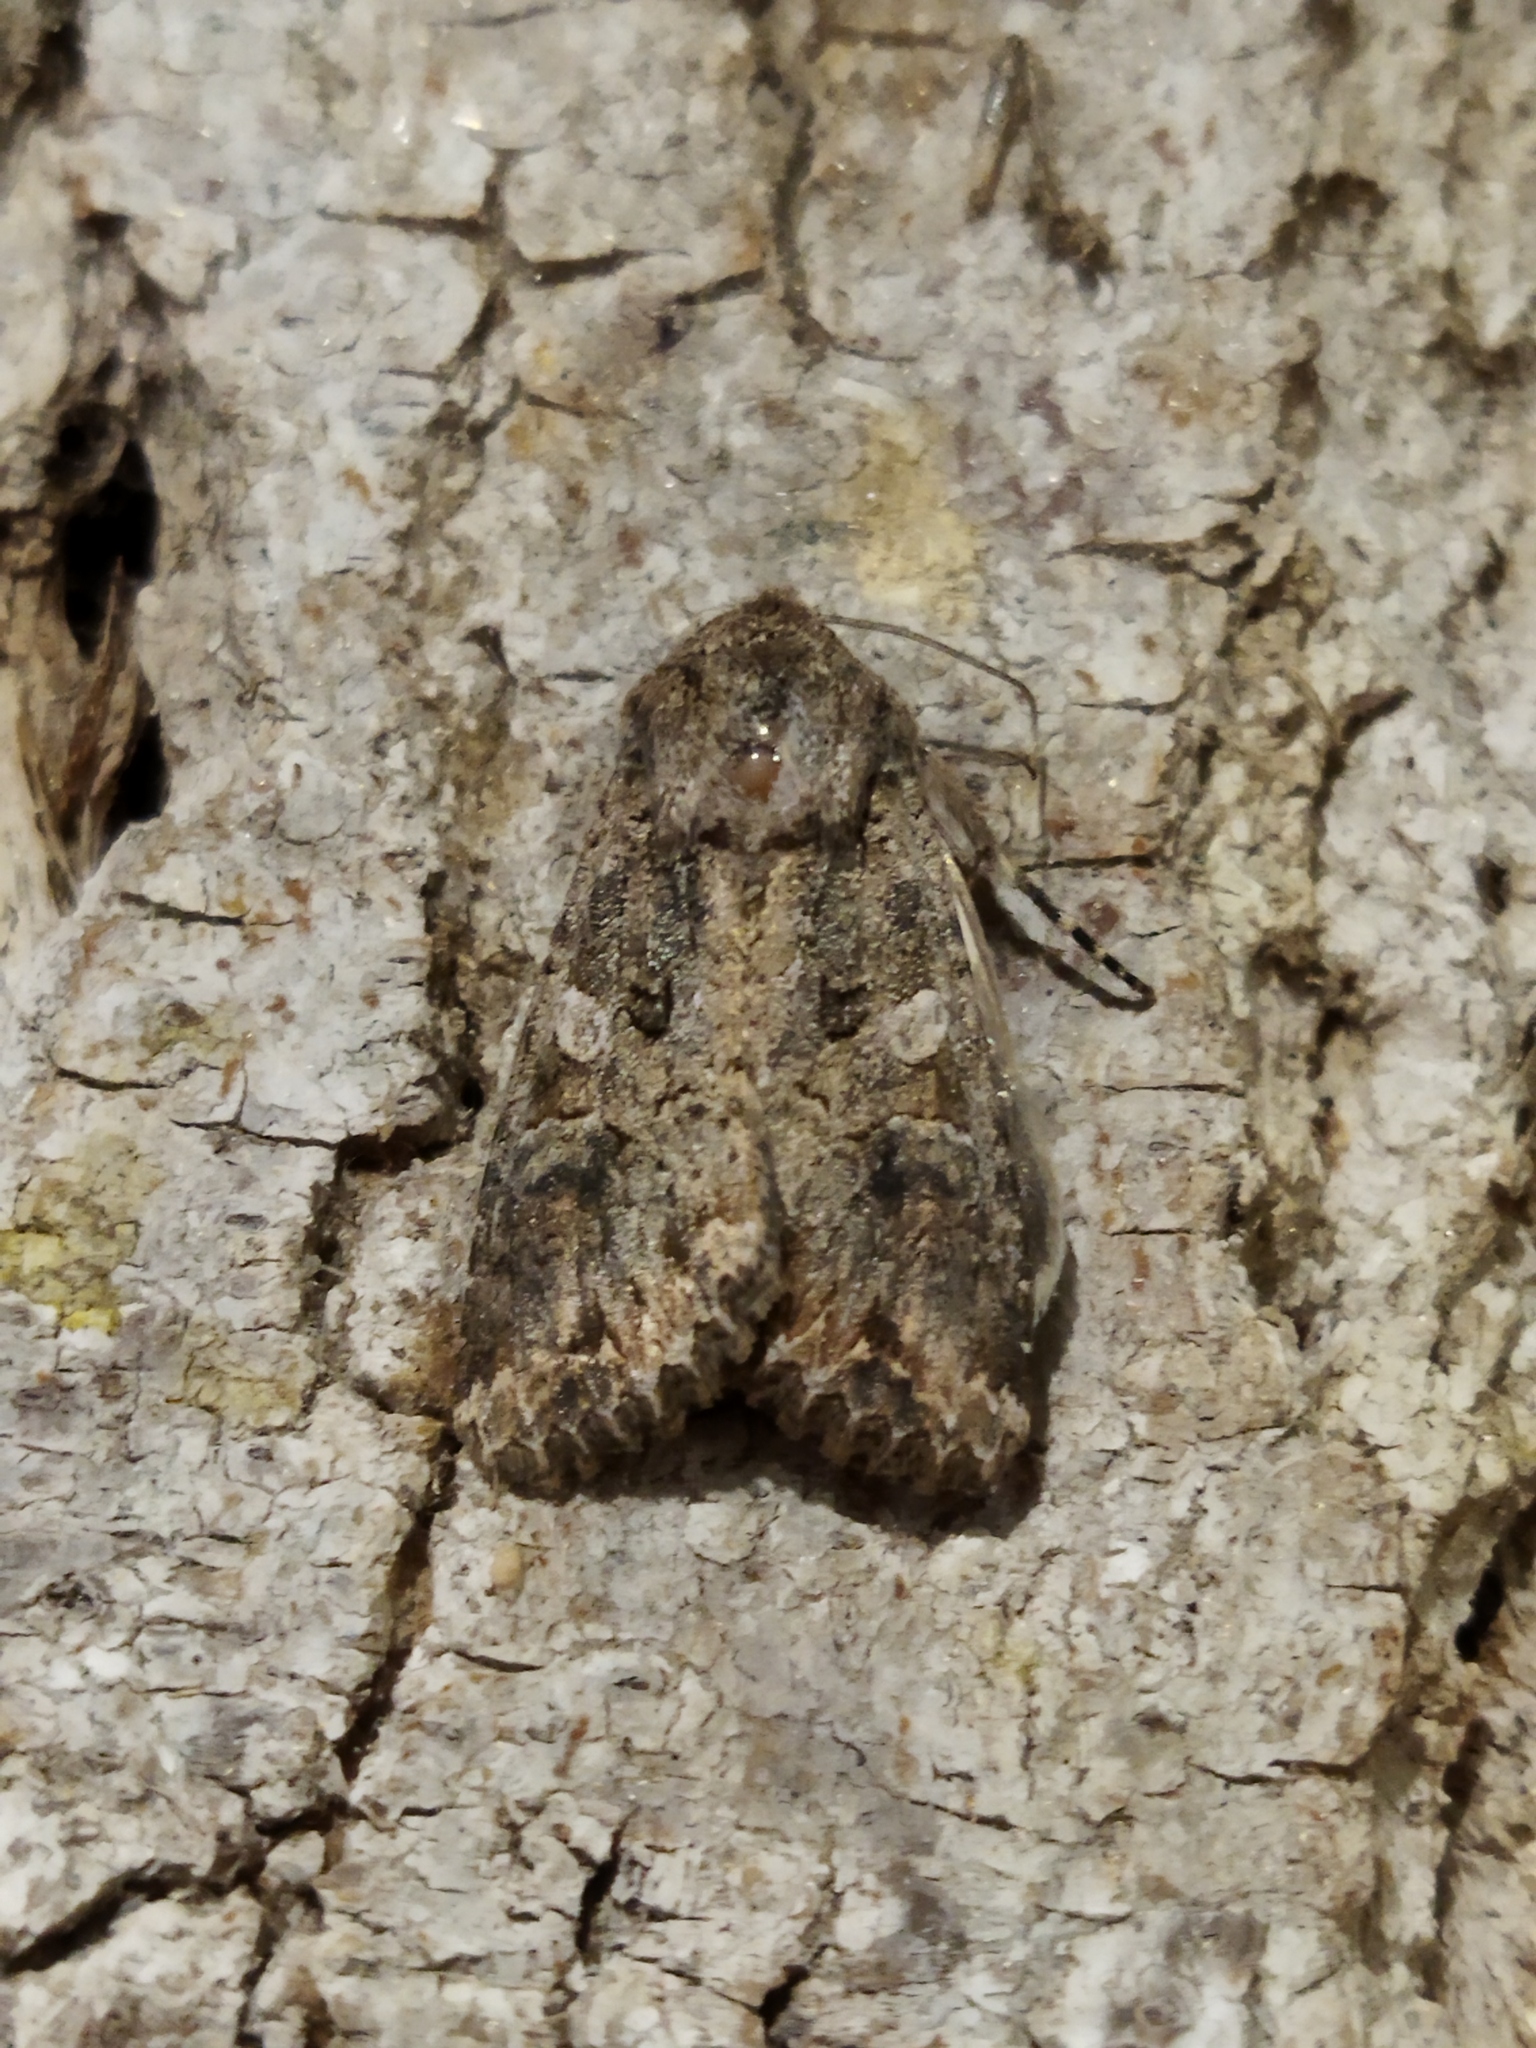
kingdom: Animalia
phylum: Arthropoda
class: Insecta
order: Lepidoptera
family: Noctuidae
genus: Anarta
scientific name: Anarta trifolii
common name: Clover cutworm moth
